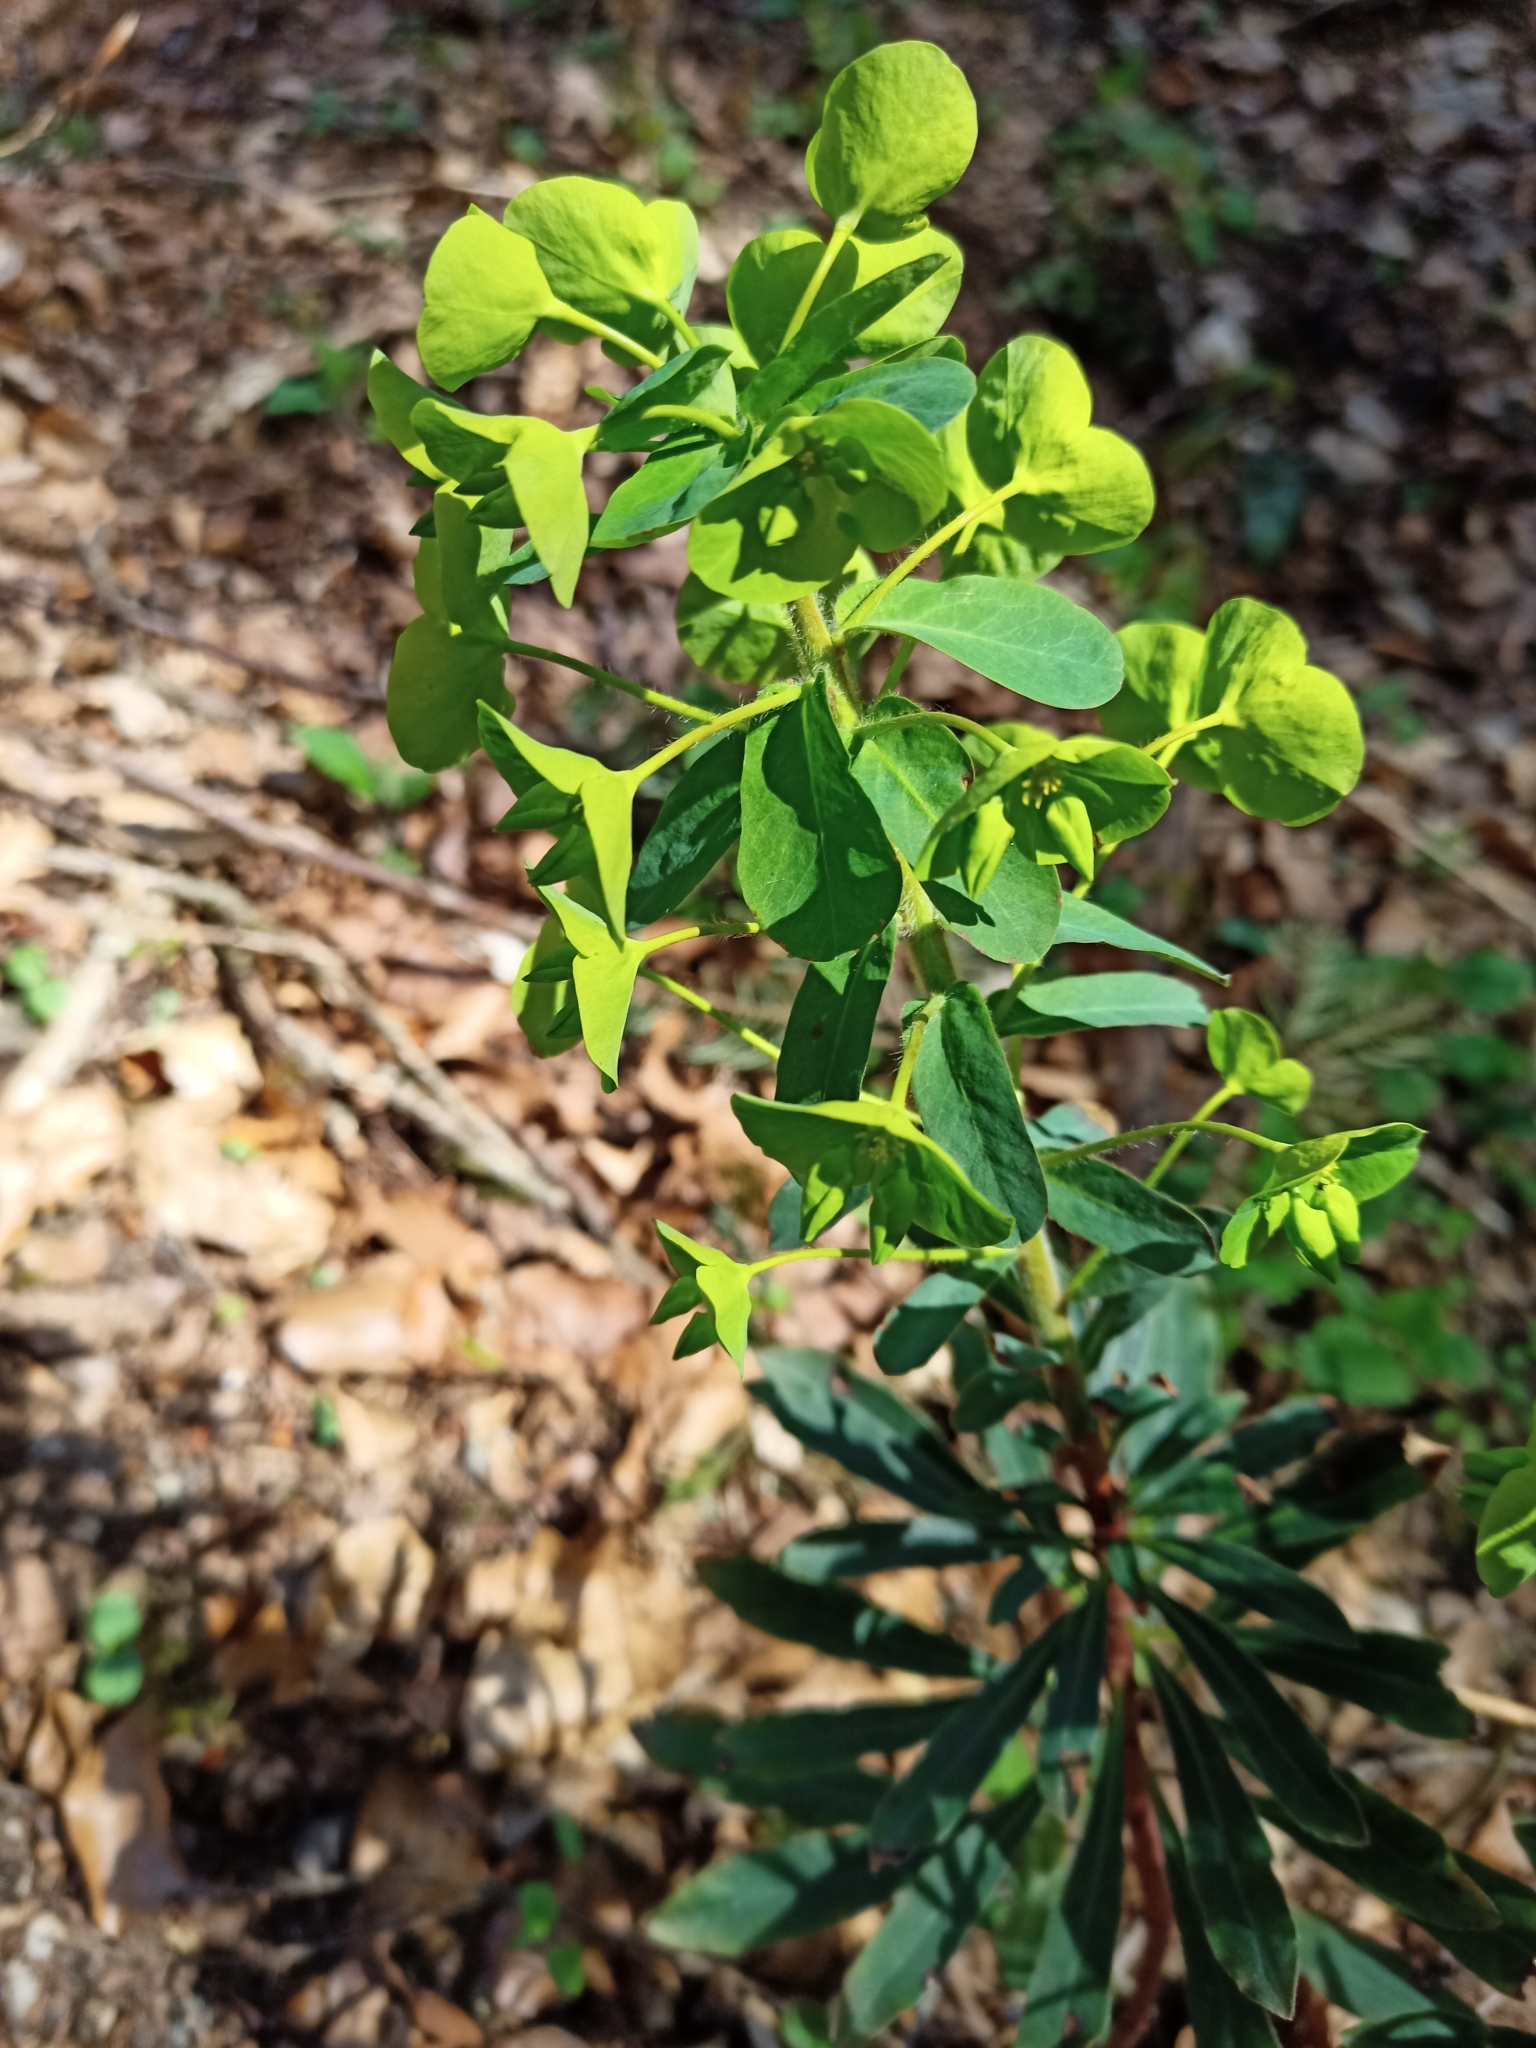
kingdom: Plantae
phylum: Tracheophyta
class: Magnoliopsida
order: Malpighiales
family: Euphorbiaceae
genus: Euphorbia
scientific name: Euphorbia amygdaloides
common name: Wood spurge
